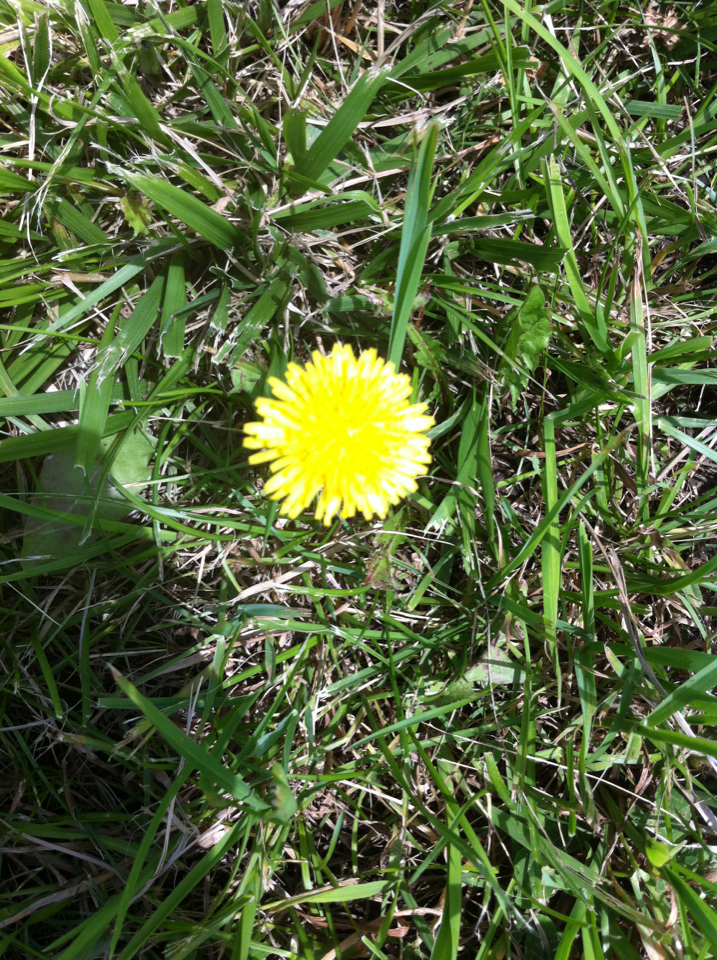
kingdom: Plantae
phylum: Tracheophyta
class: Magnoliopsida
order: Asterales
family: Asteraceae
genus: Taraxacum
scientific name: Taraxacum
